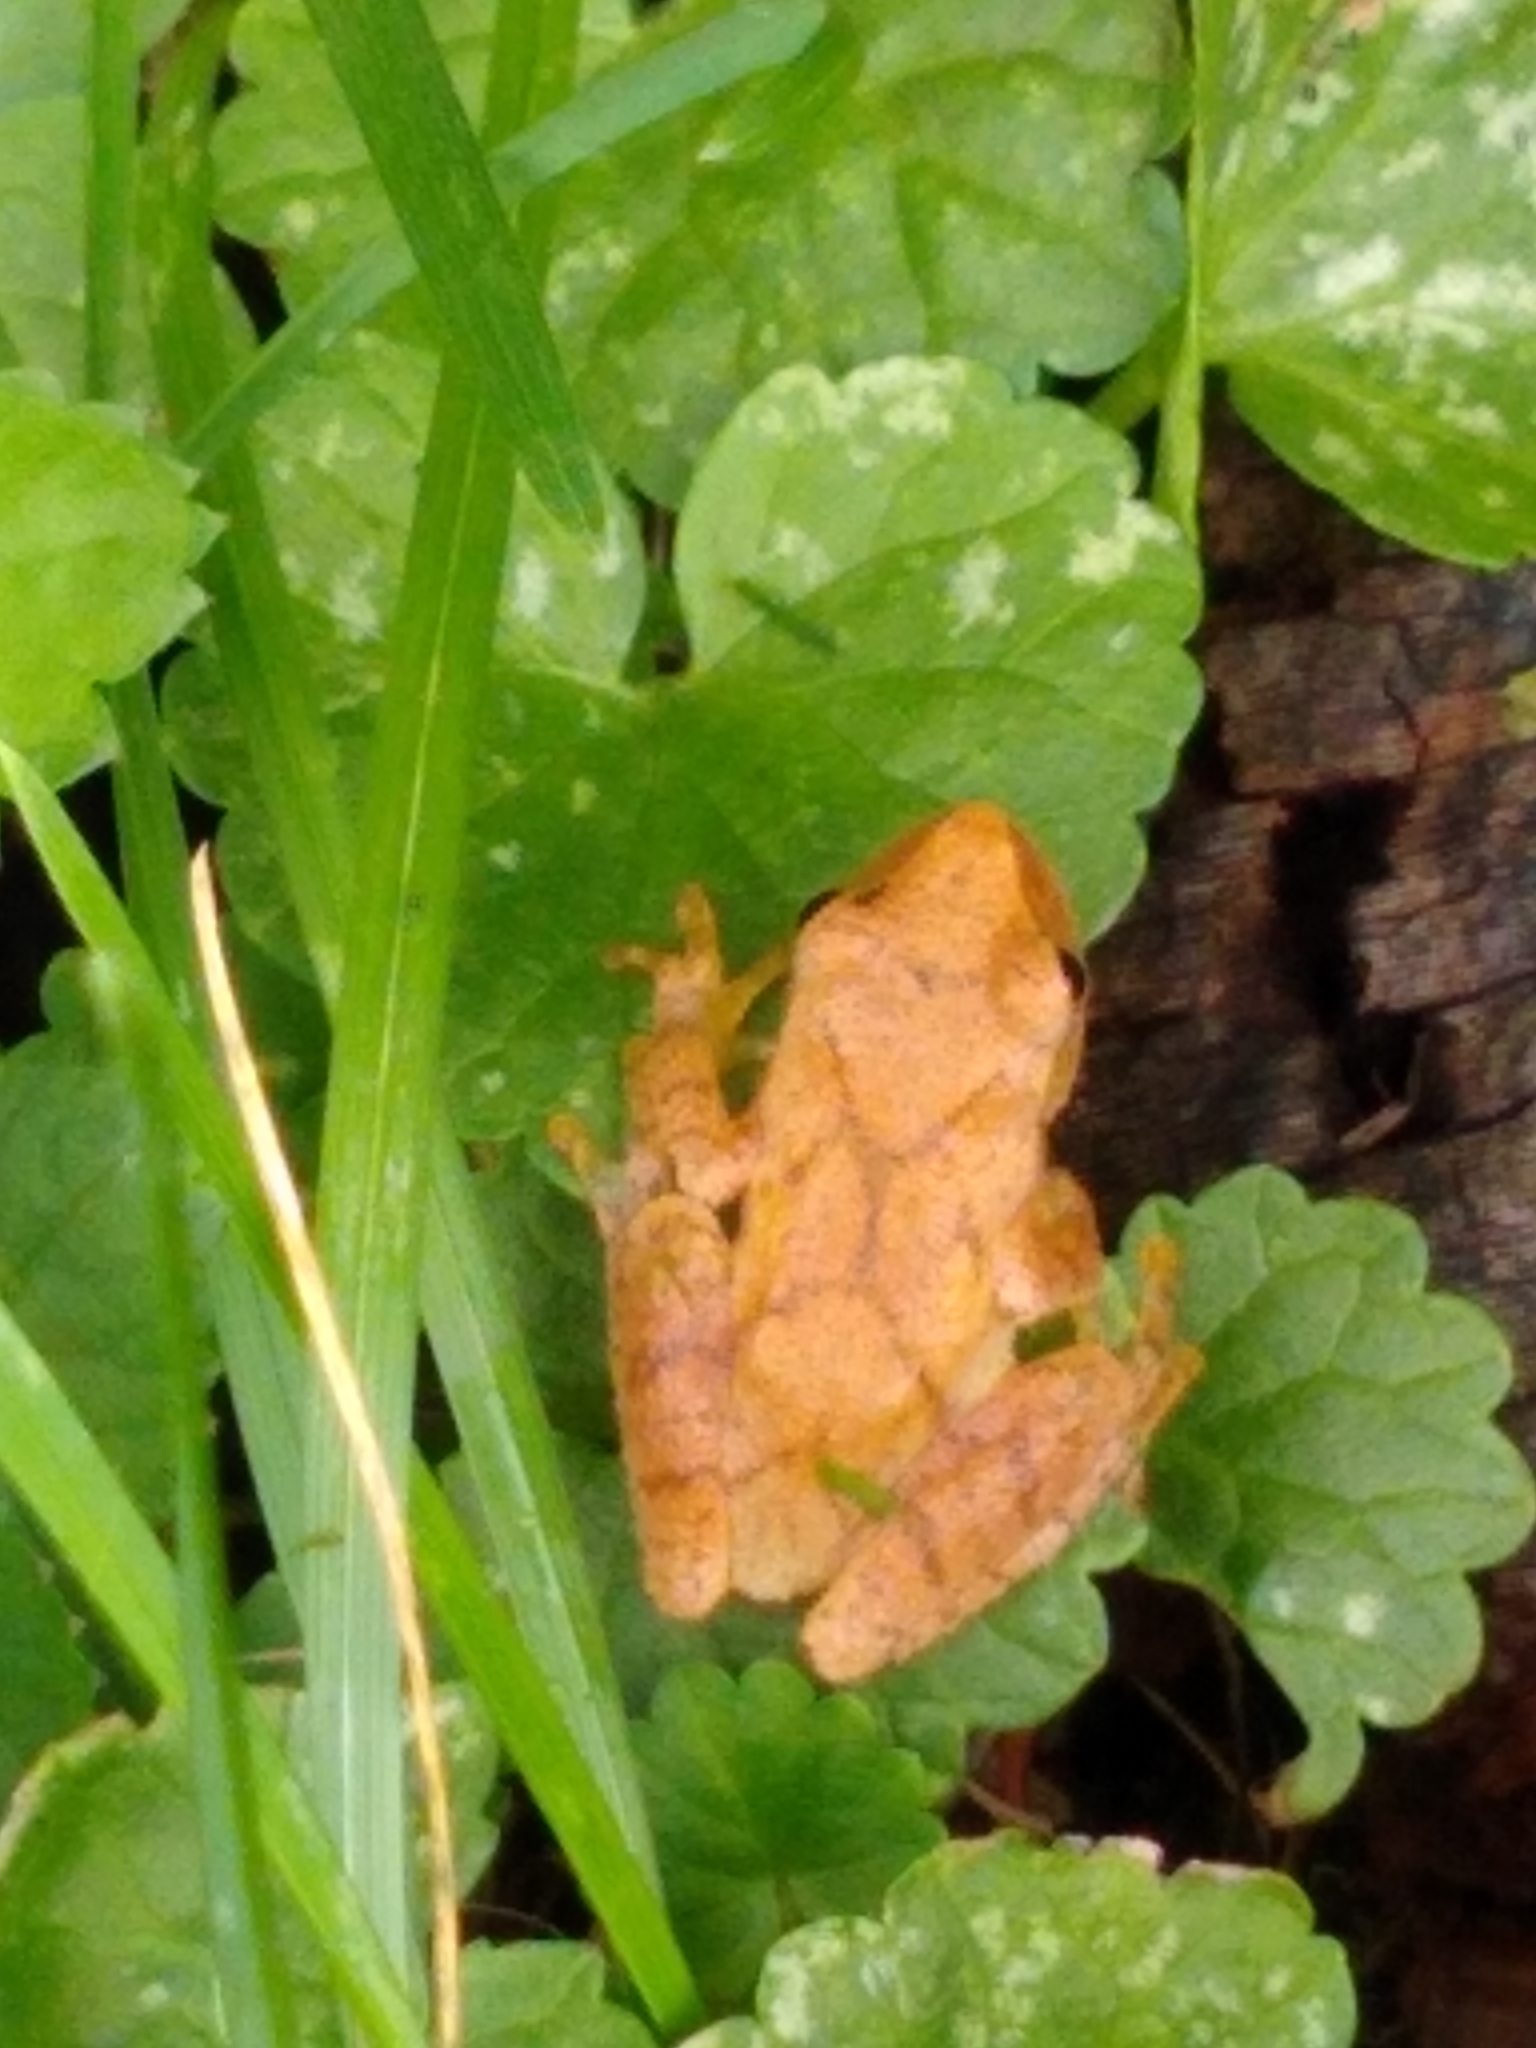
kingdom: Animalia
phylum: Chordata
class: Amphibia
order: Anura
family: Hylidae
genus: Pseudacris
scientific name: Pseudacris crucifer
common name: Spring peeper
